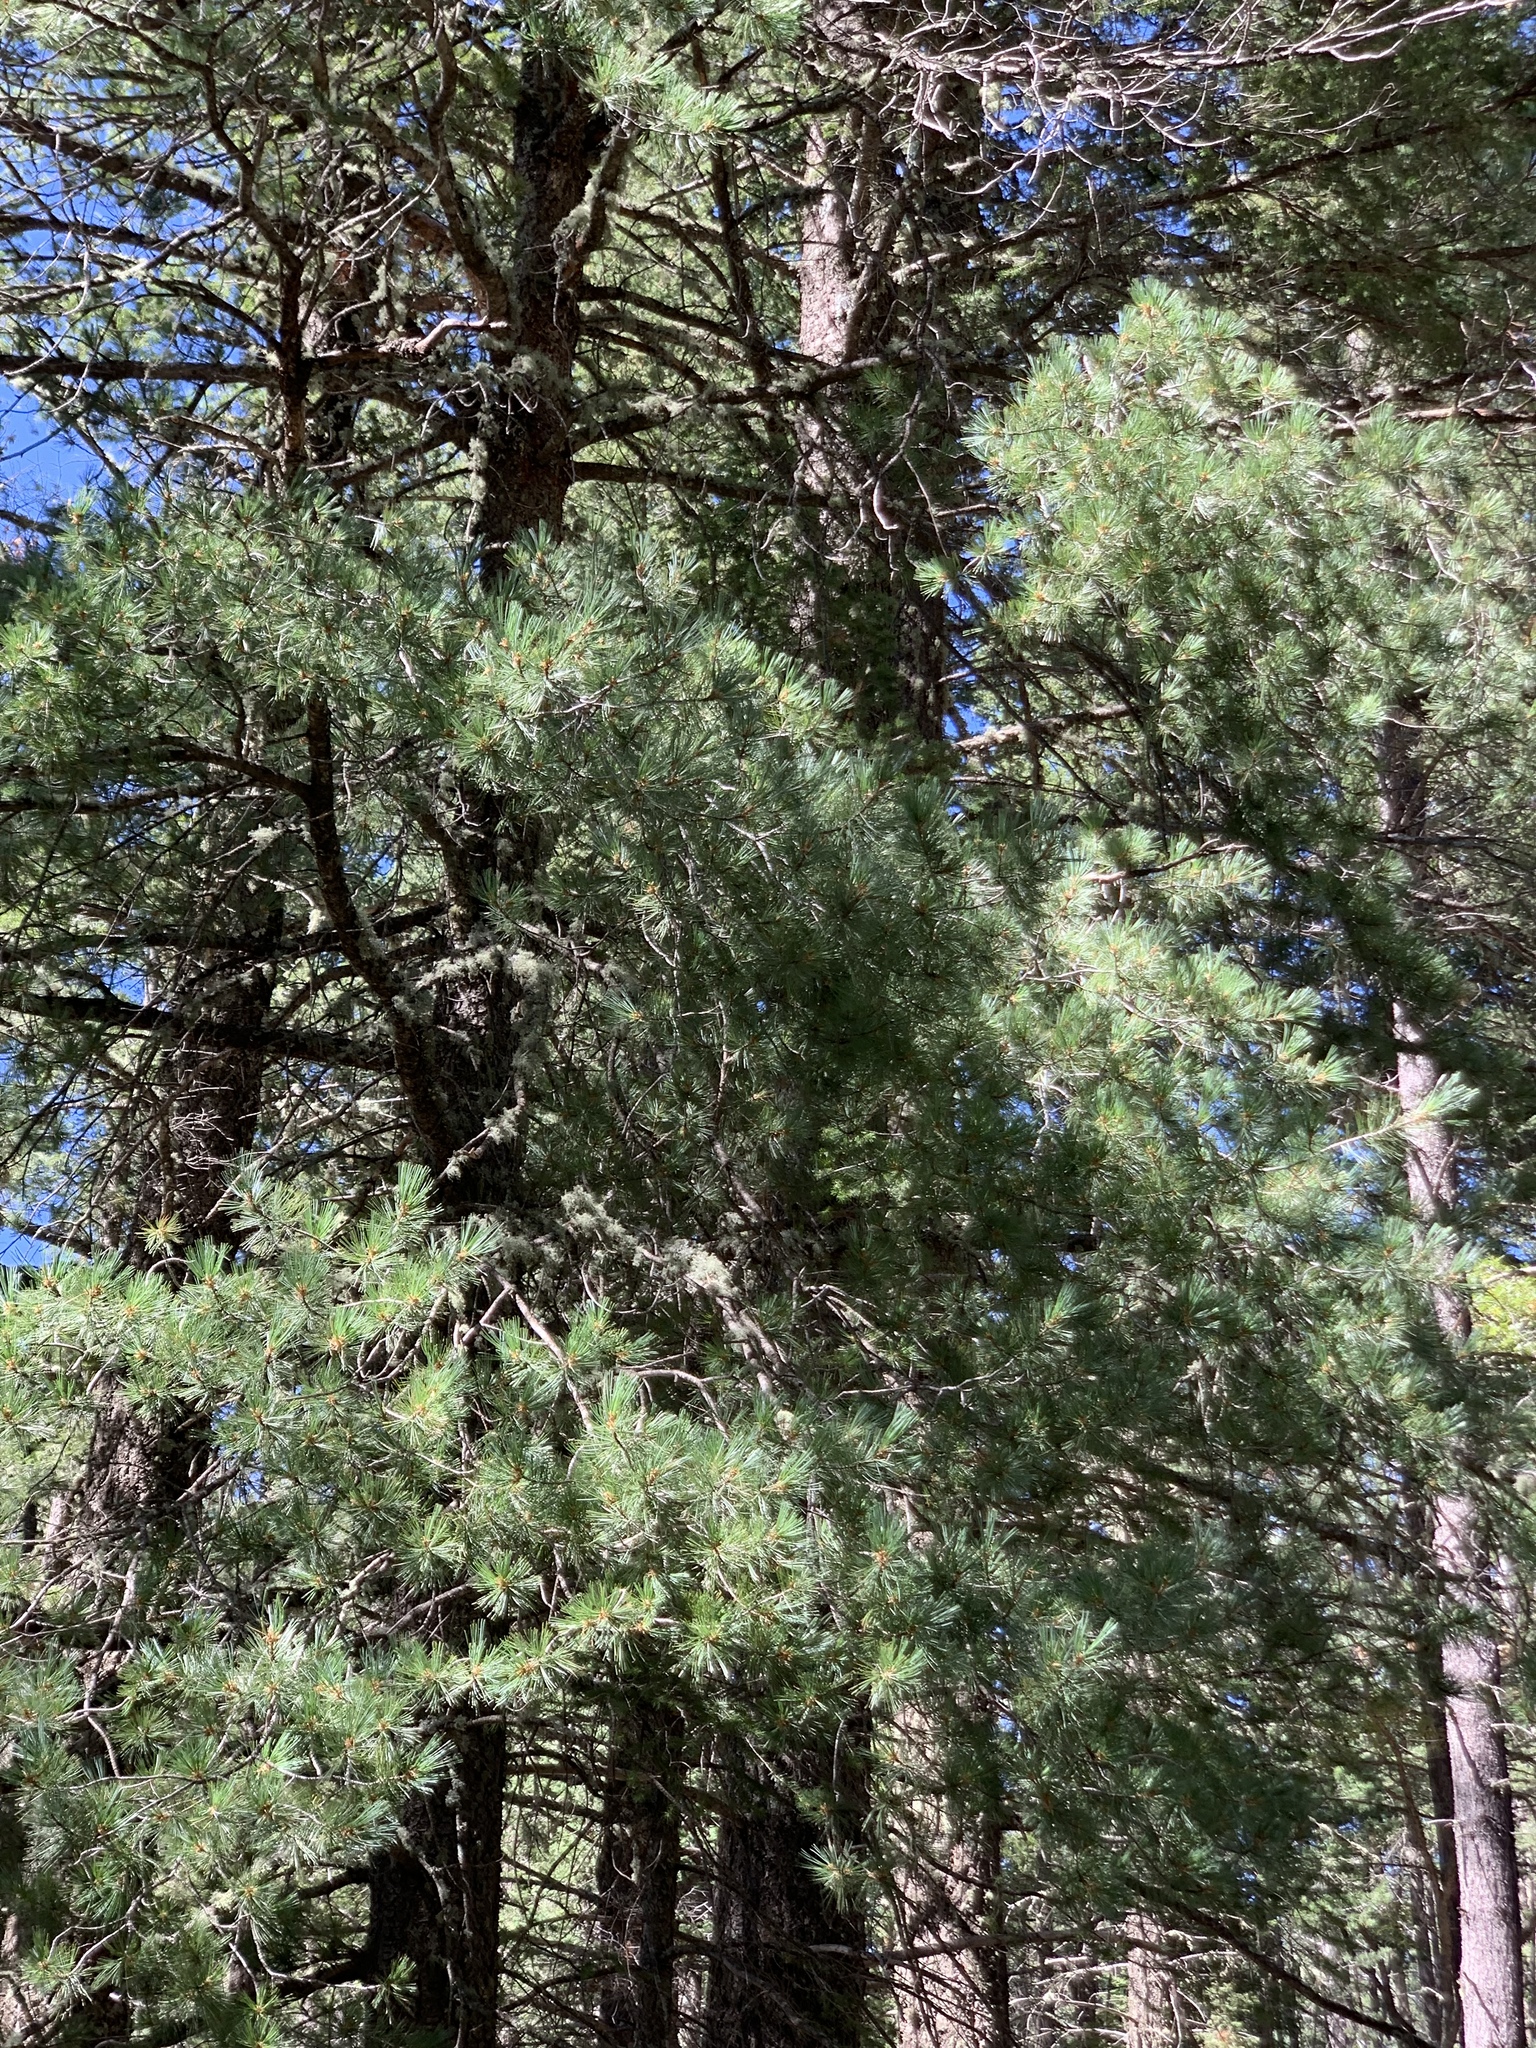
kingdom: Plantae
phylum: Tracheophyta
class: Pinopsida
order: Pinales
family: Pinaceae
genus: Pinus
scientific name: Pinus strobiformis
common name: Southwestern white pine
